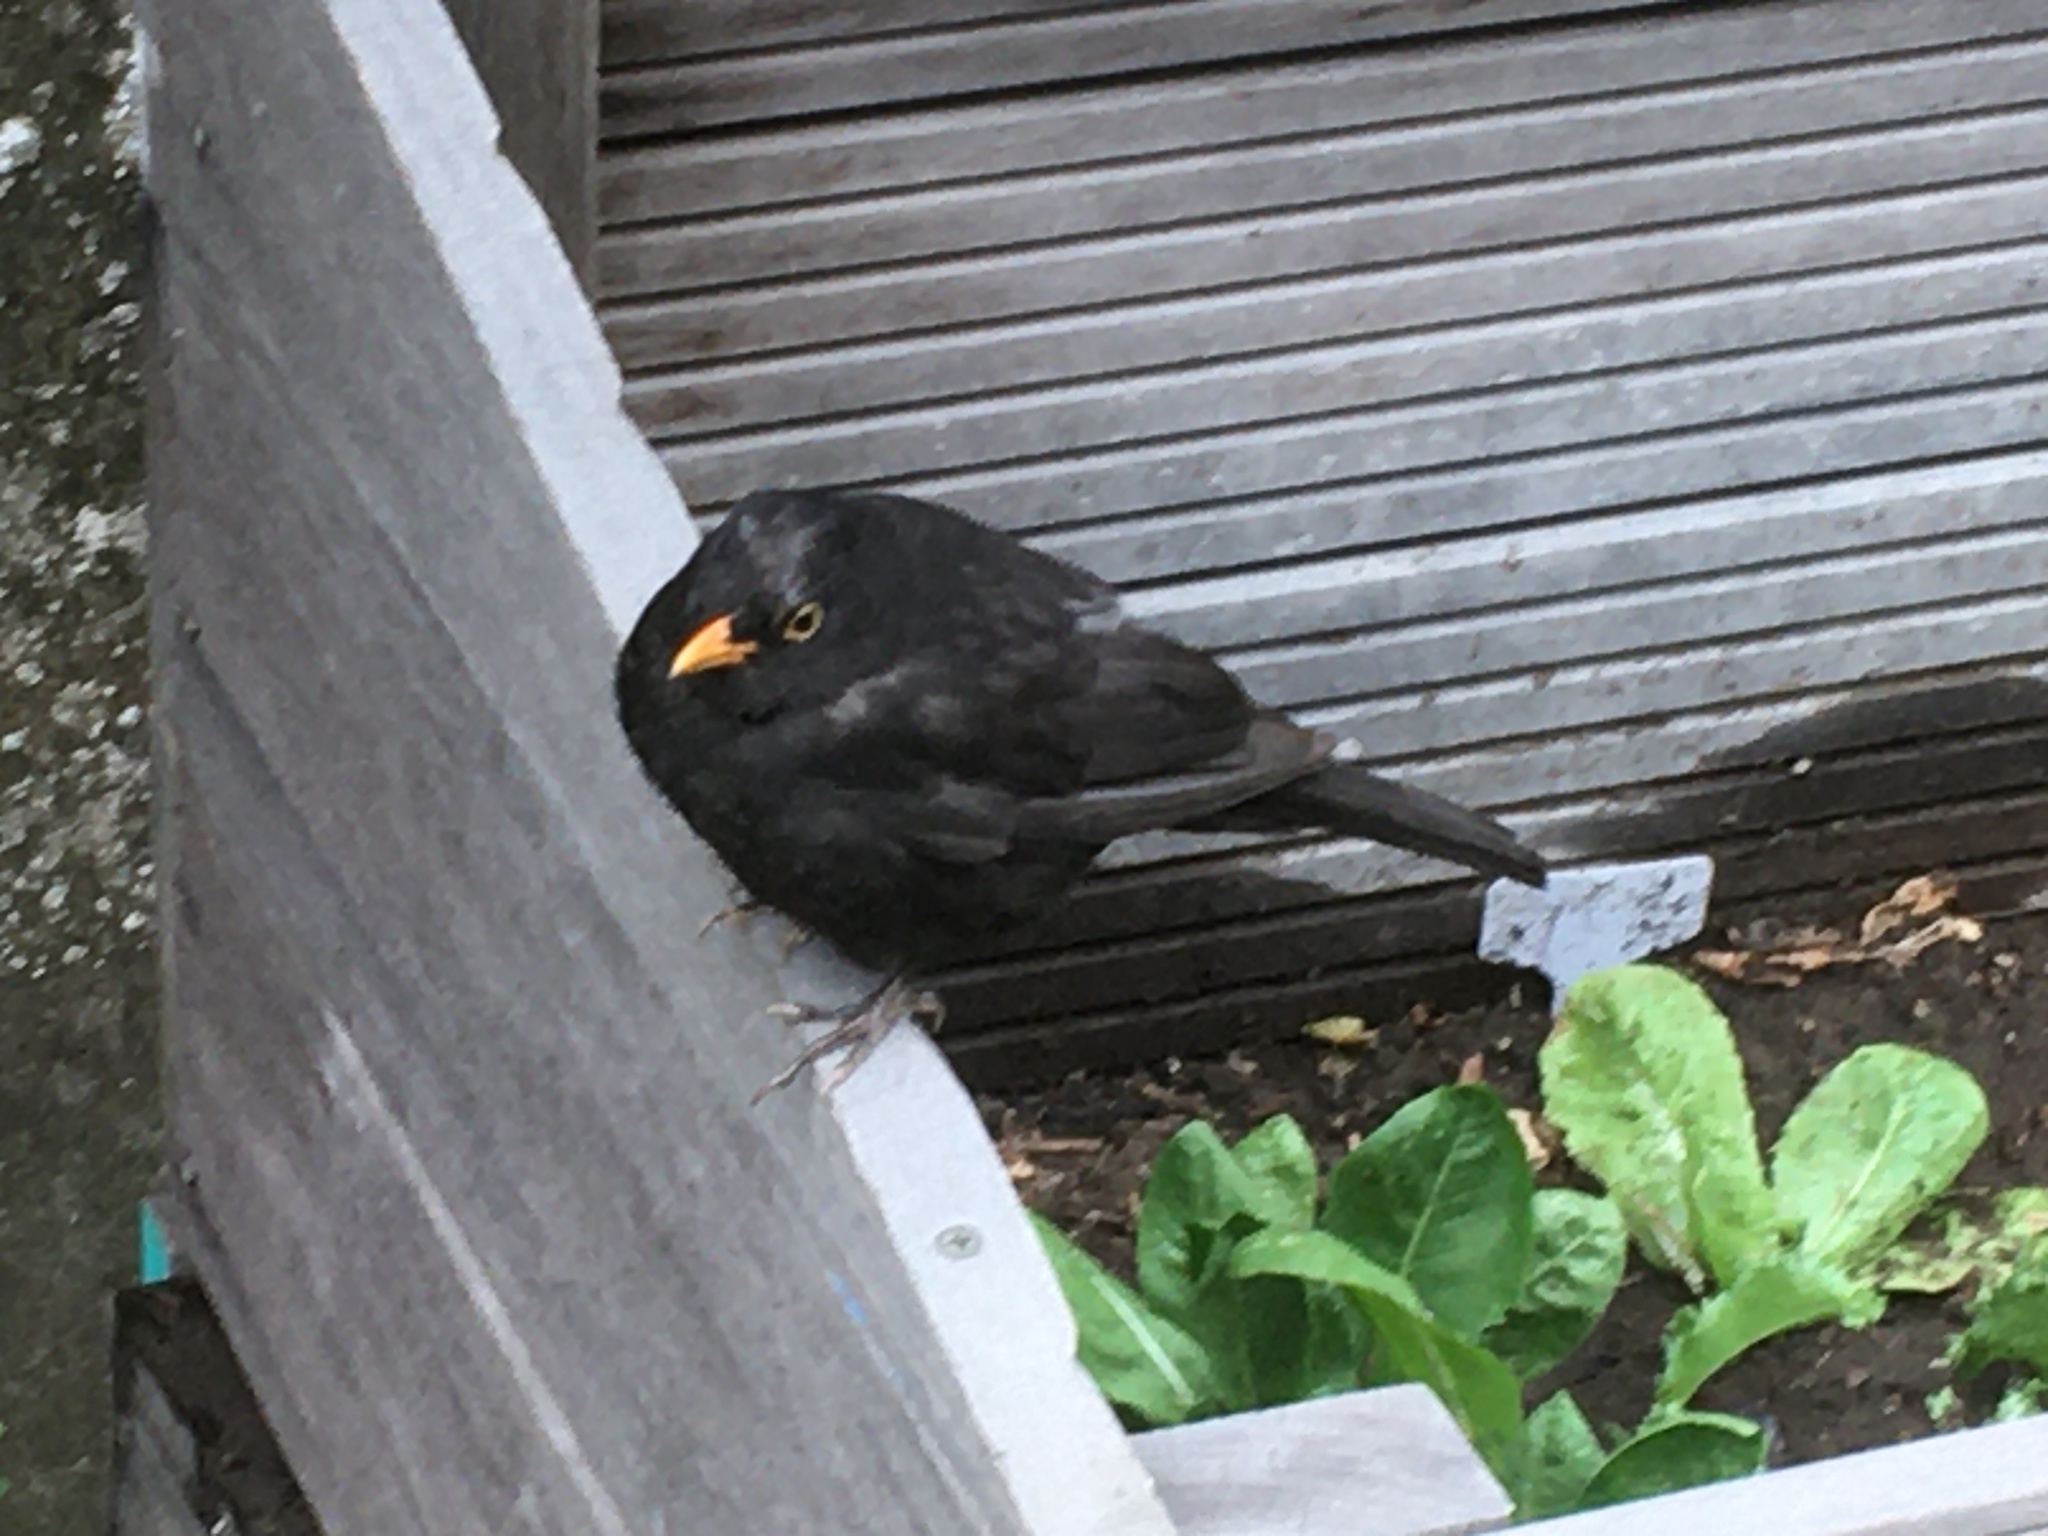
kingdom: Animalia
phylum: Chordata
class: Aves
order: Passeriformes
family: Turdidae
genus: Turdus
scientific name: Turdus merula
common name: Common blackbird
